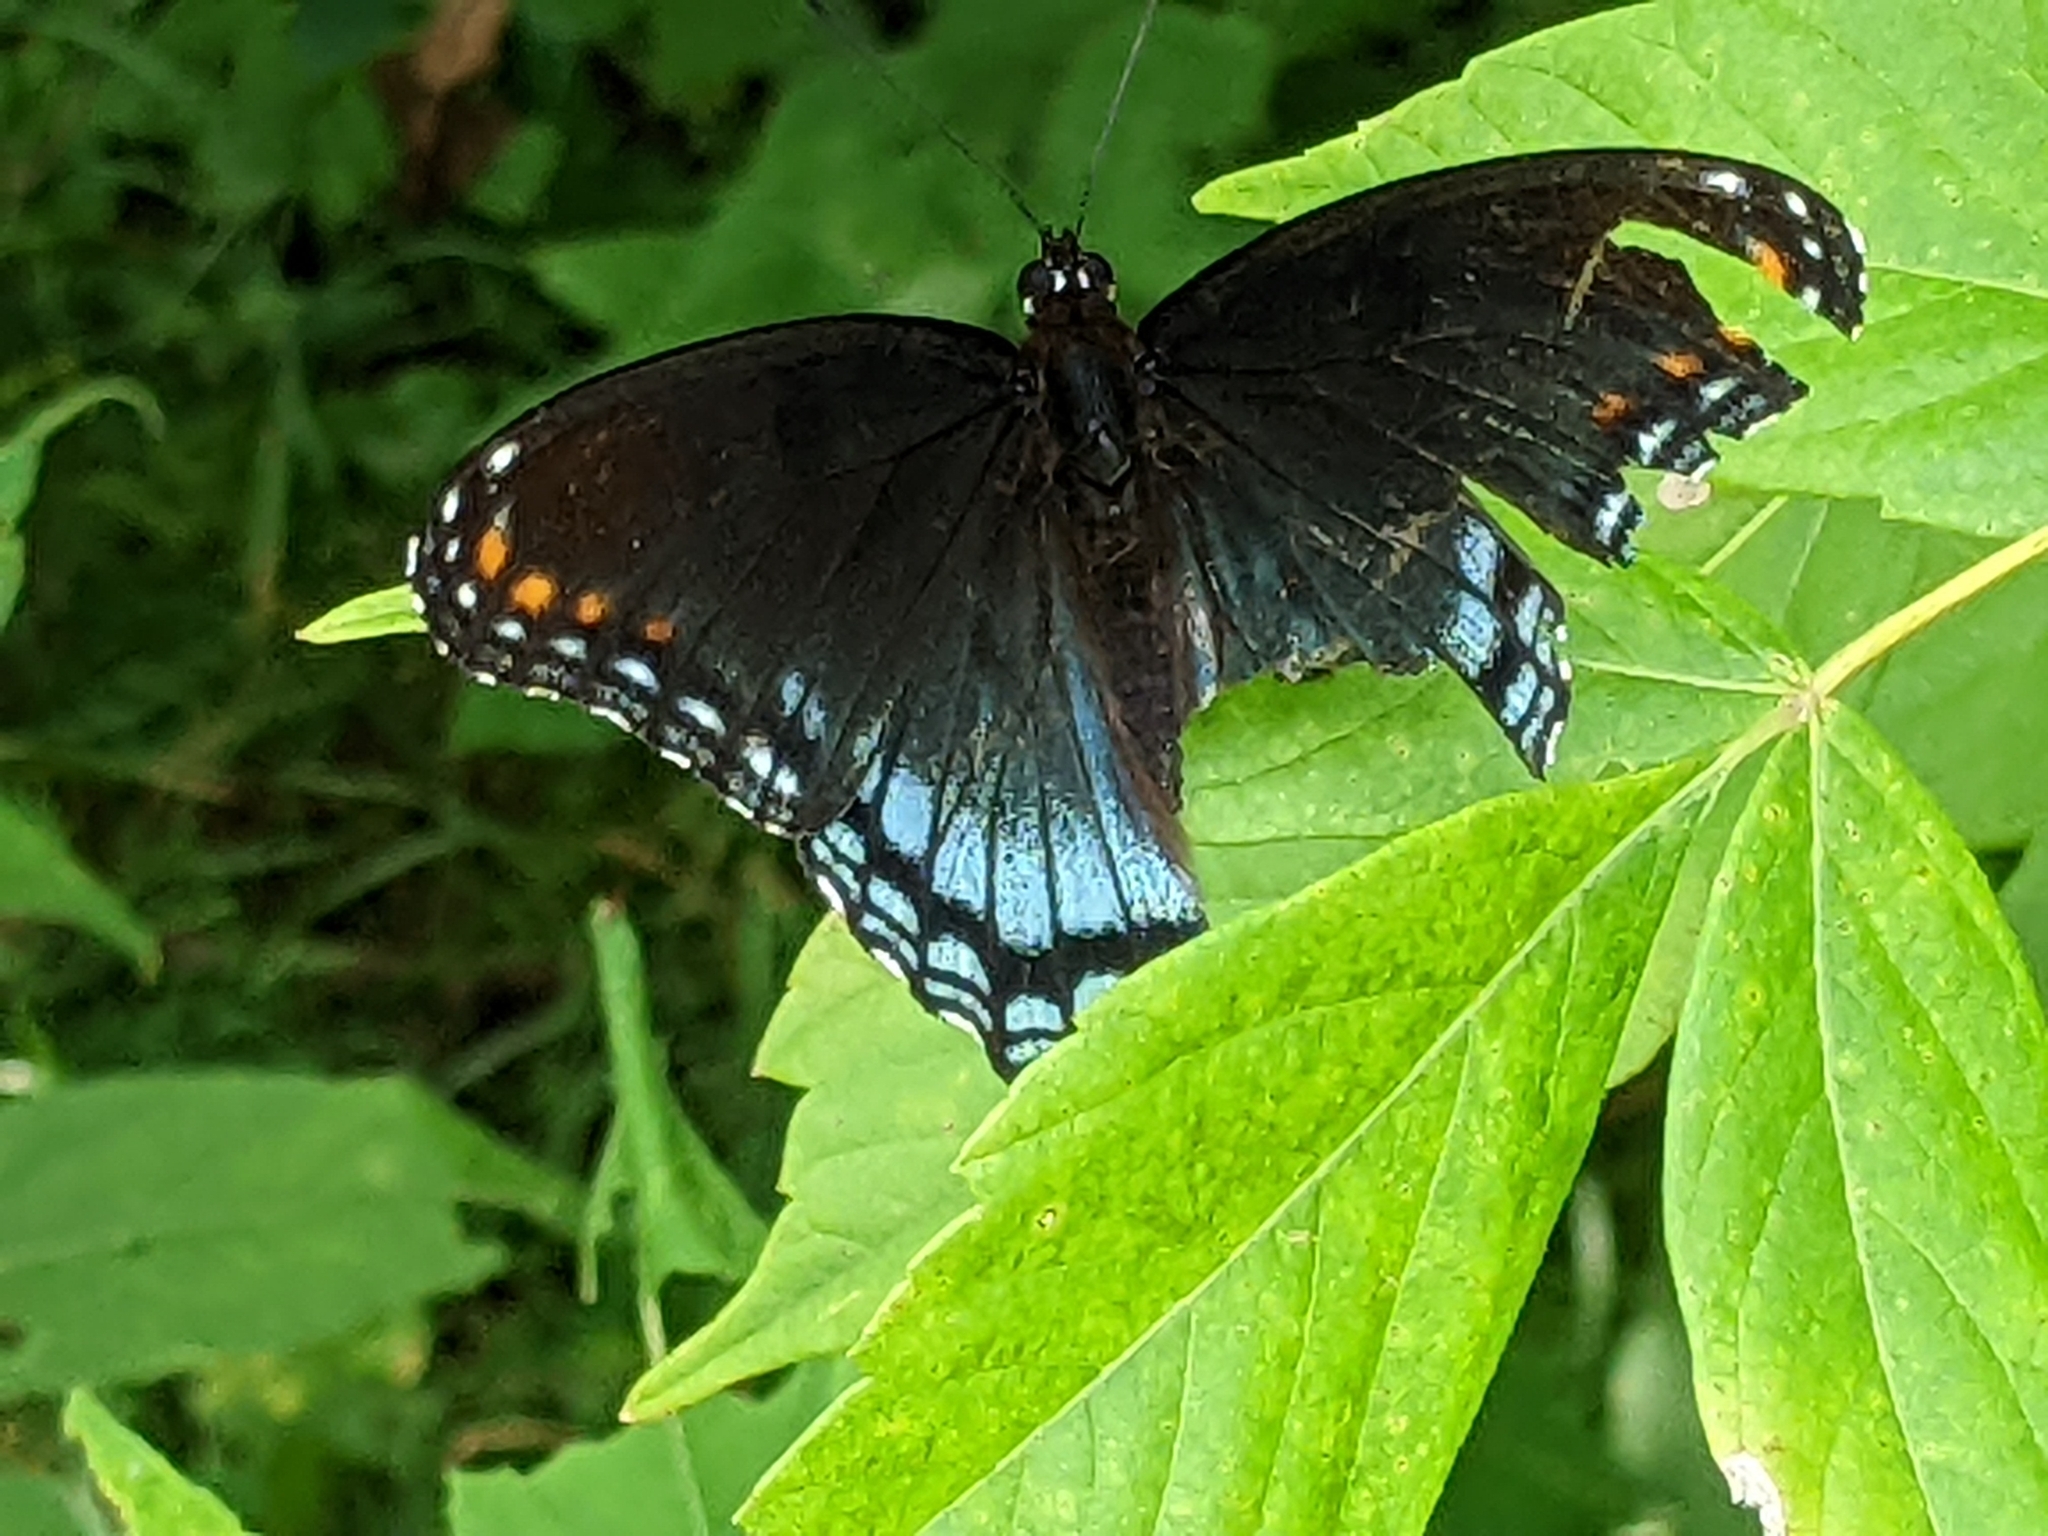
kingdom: Animalia
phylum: Arthropoda
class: Insecta
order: Lepidoptera
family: Nymphalidae
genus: Limenitis
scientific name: Limenitis arthemis
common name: Red-spotted admiral
